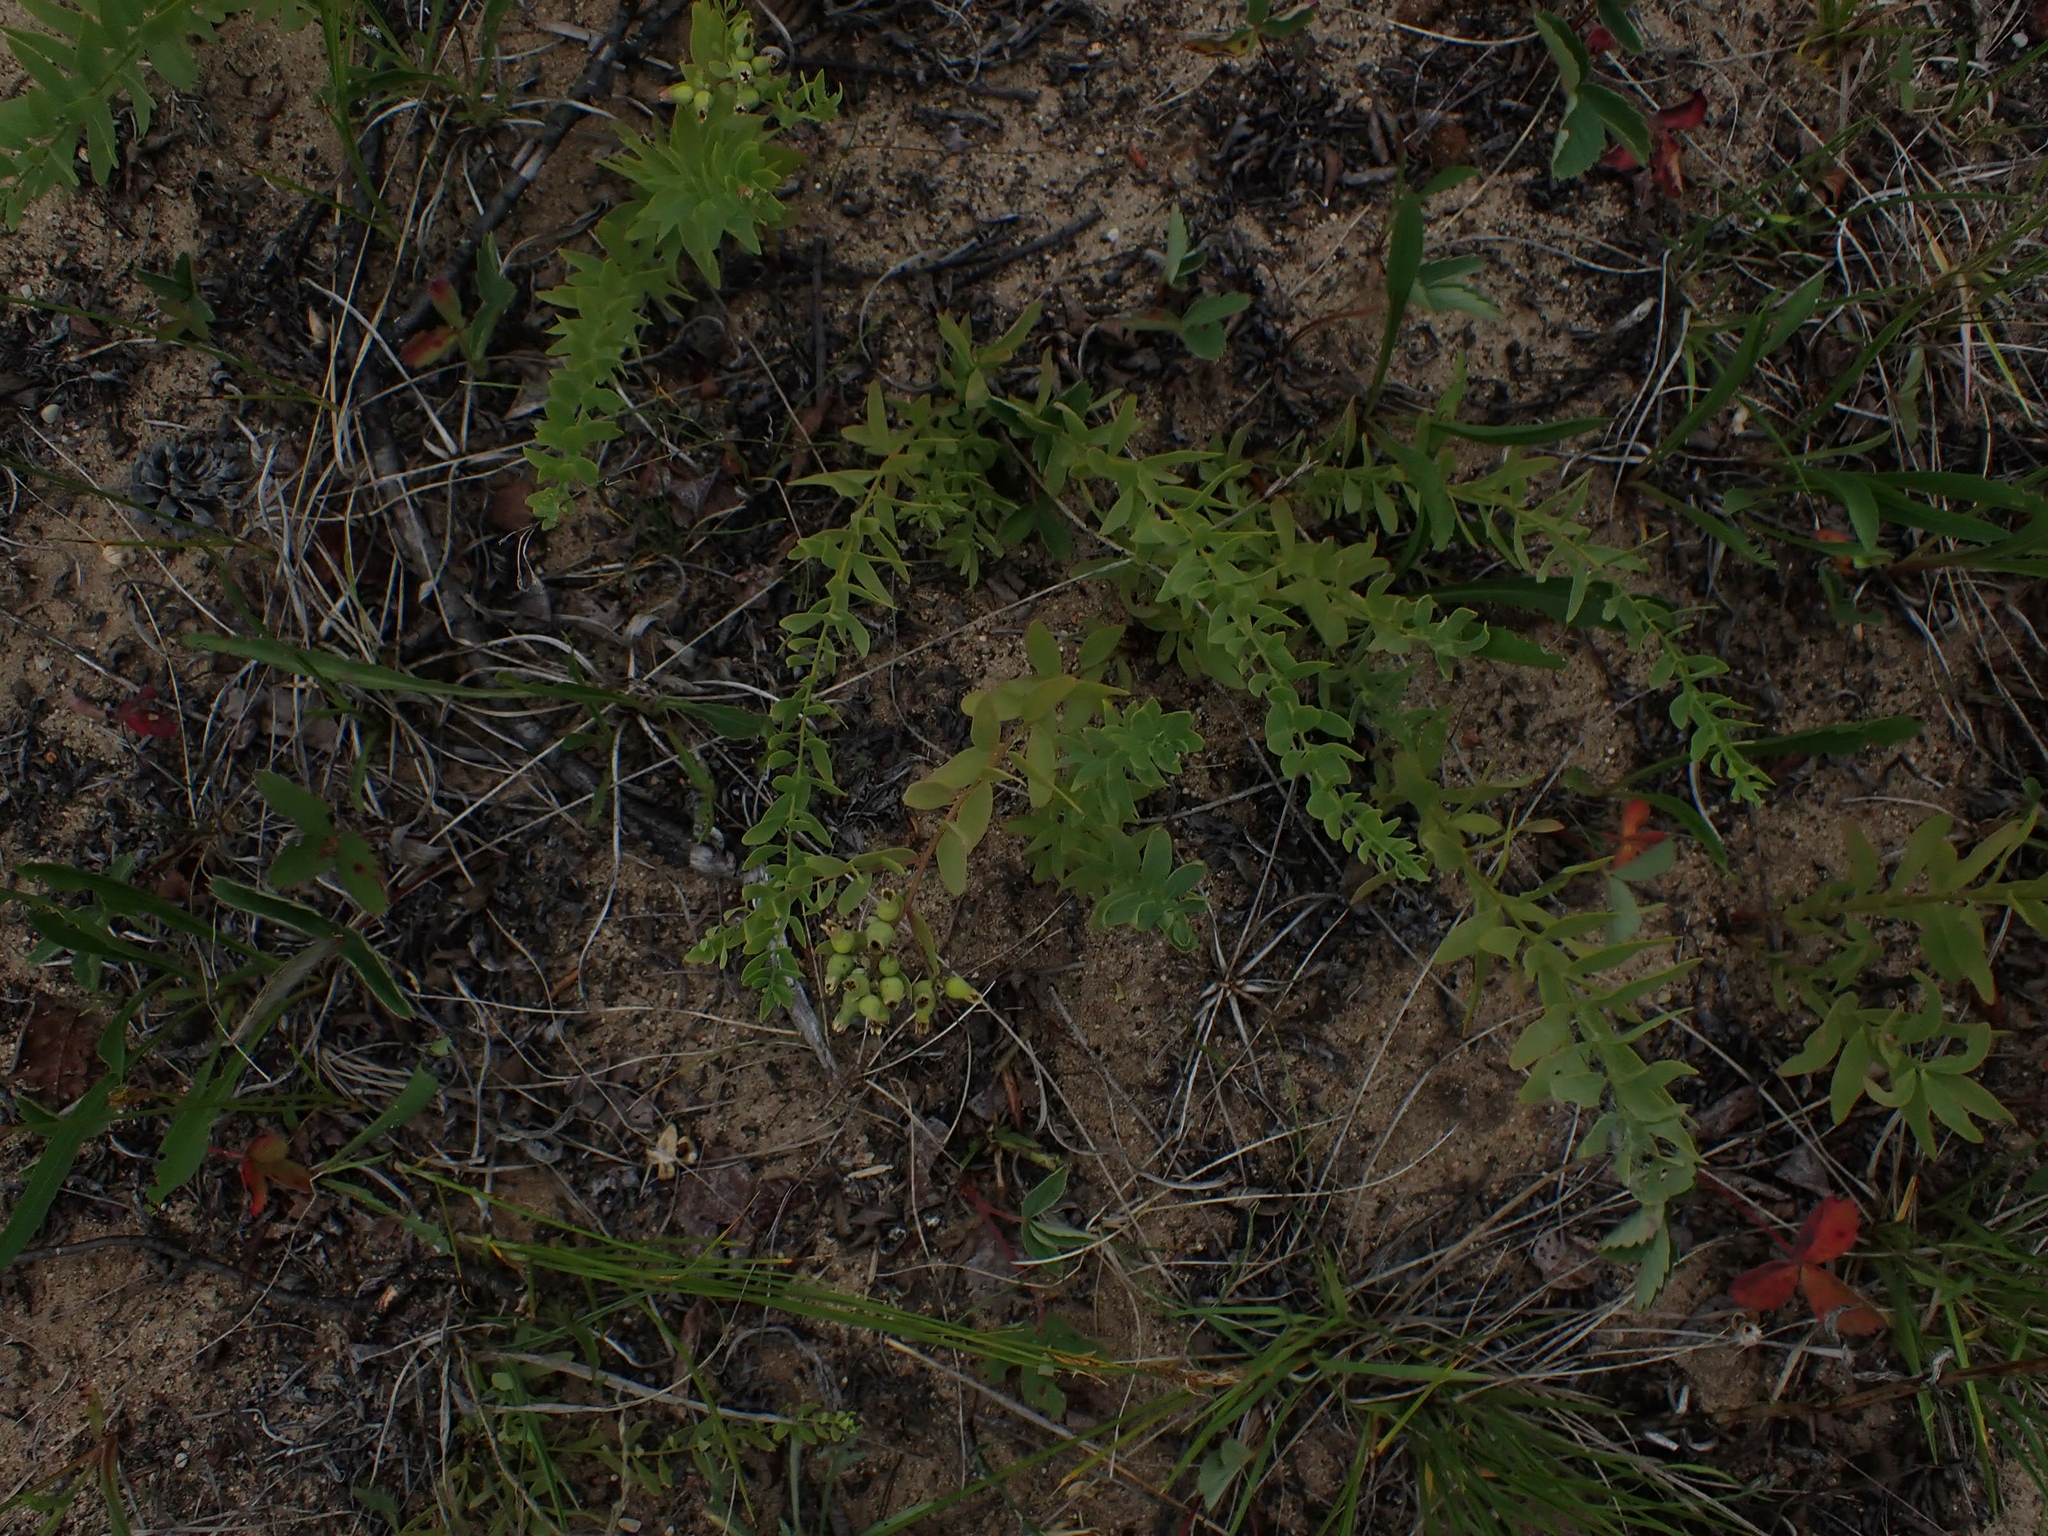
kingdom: Plantae
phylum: Tracheophyta
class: Magnoliopsida
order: Santalales
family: Comandraceae
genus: Comandra
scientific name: Comandra umbellata
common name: Bastard toadflax
